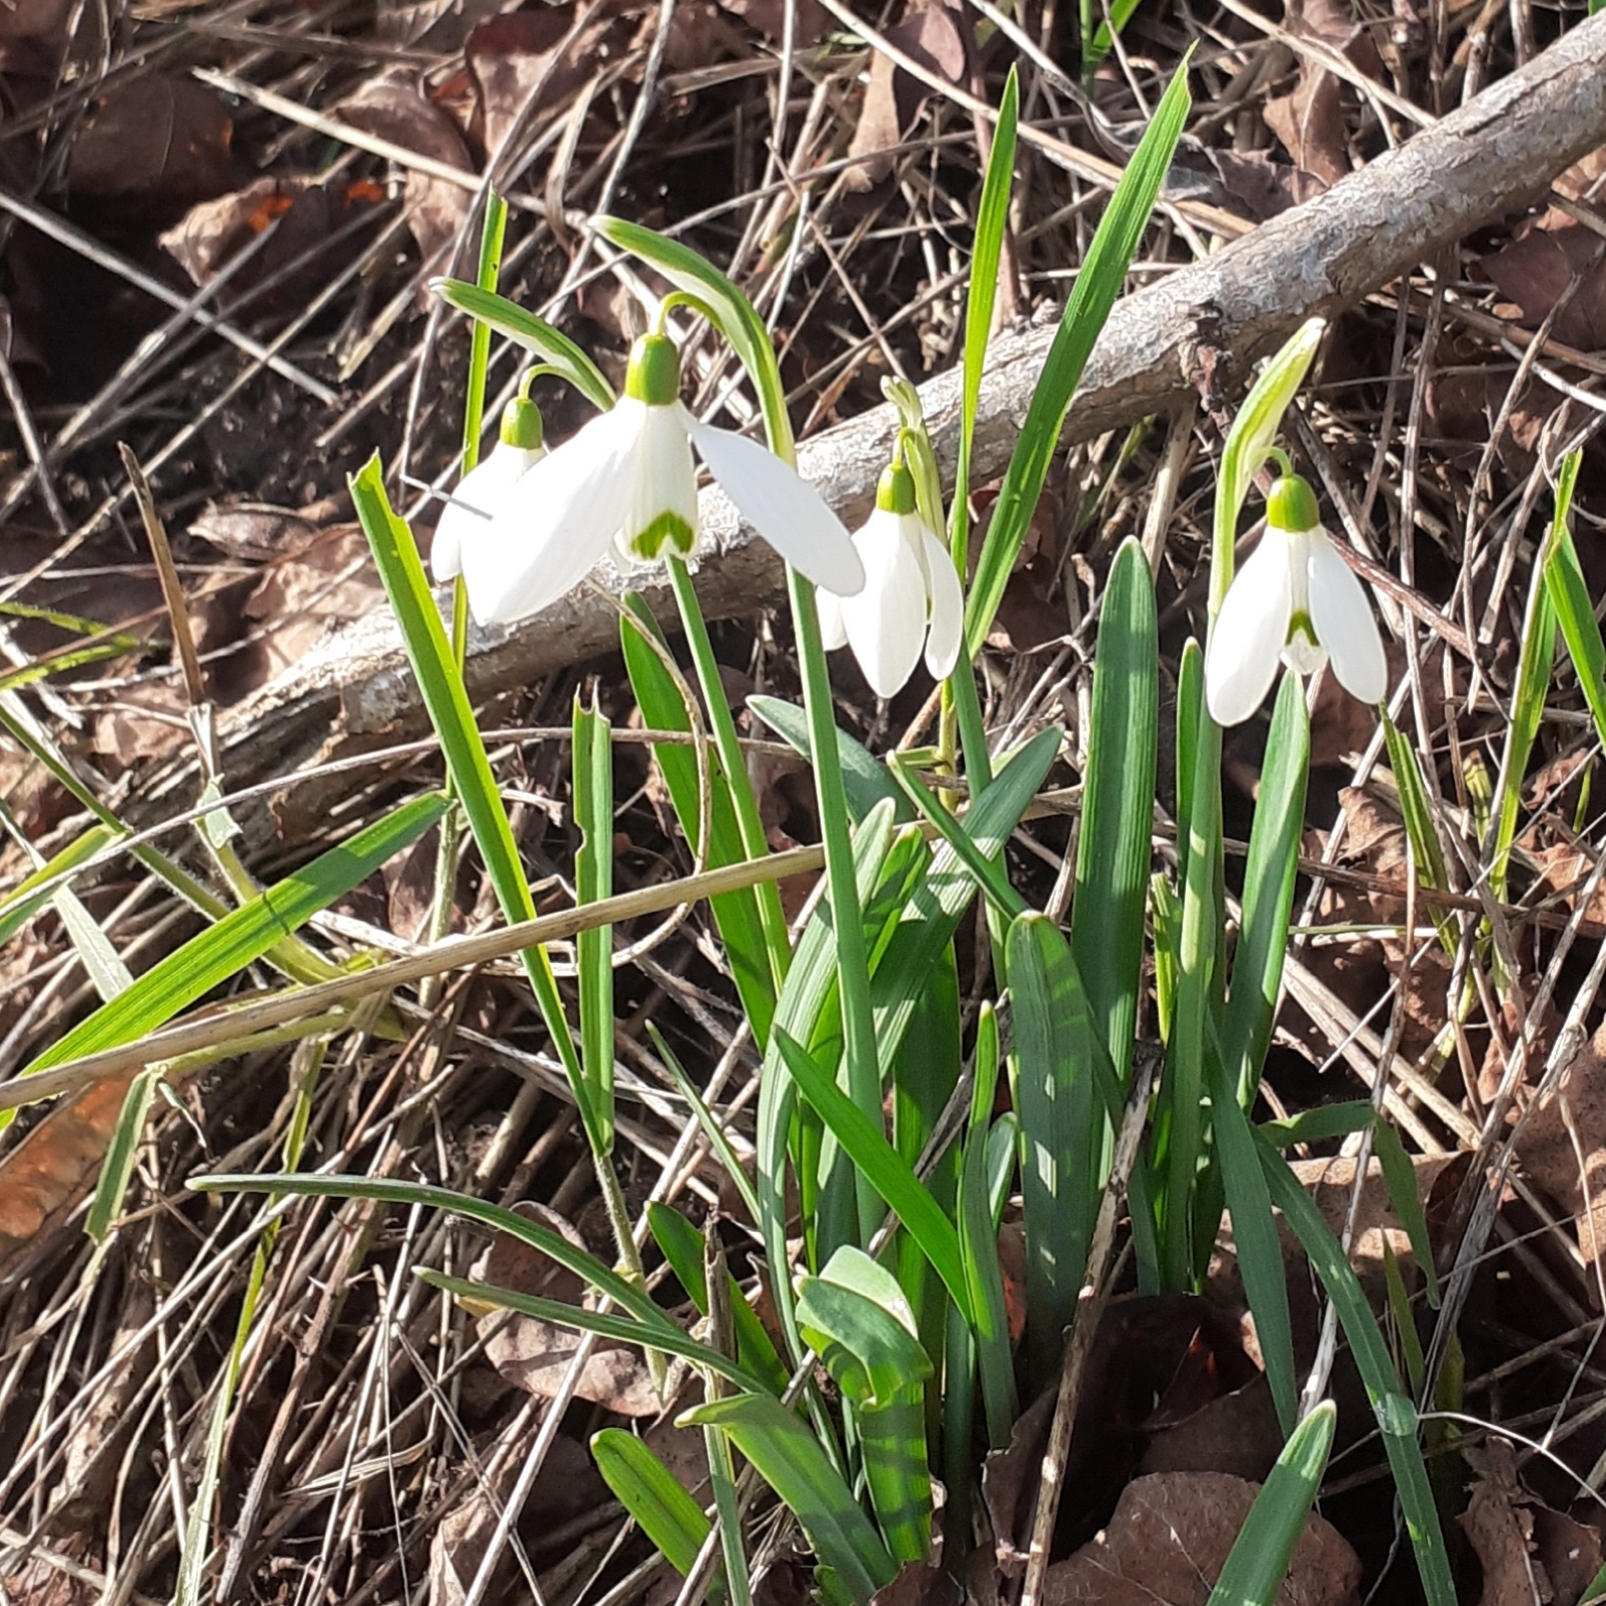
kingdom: Plantae
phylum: Tracheophyta
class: Liliopsida
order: Asparagales
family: Amaryllidaceae
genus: Galanthus
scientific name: Galanthus nivalis
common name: Snowdrop
